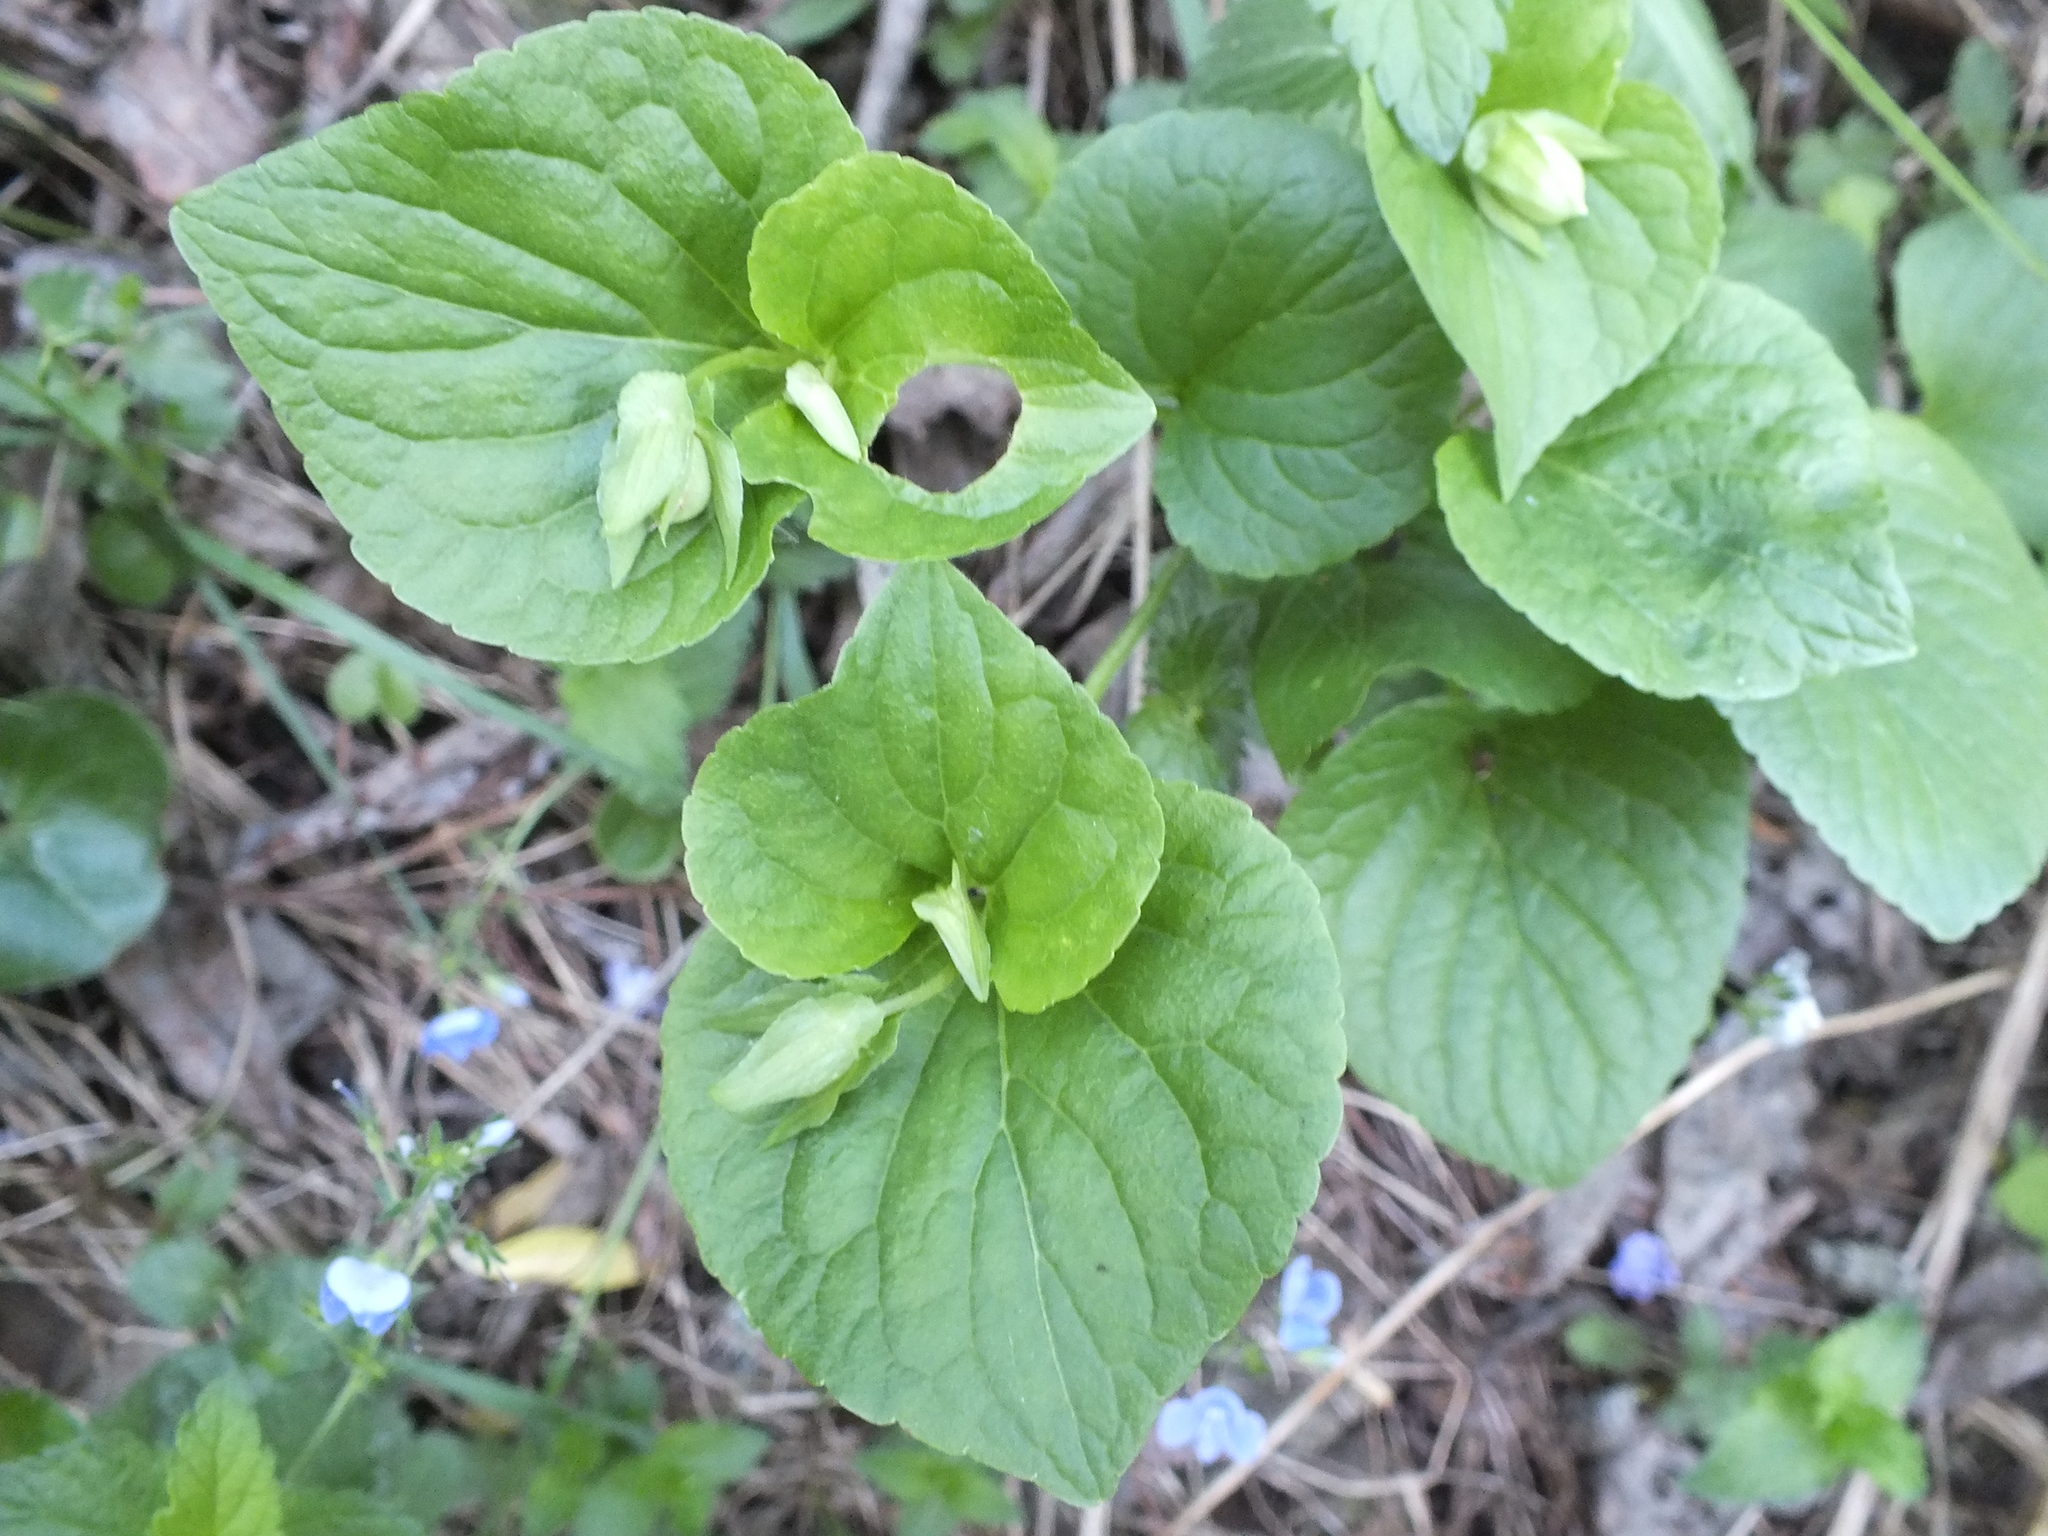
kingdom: Plantae
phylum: Tracheophyta
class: Magnoliopsida
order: Malpighiales
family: Violaceae
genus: Viola
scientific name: Viola mirabilis
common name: Wonder violet
